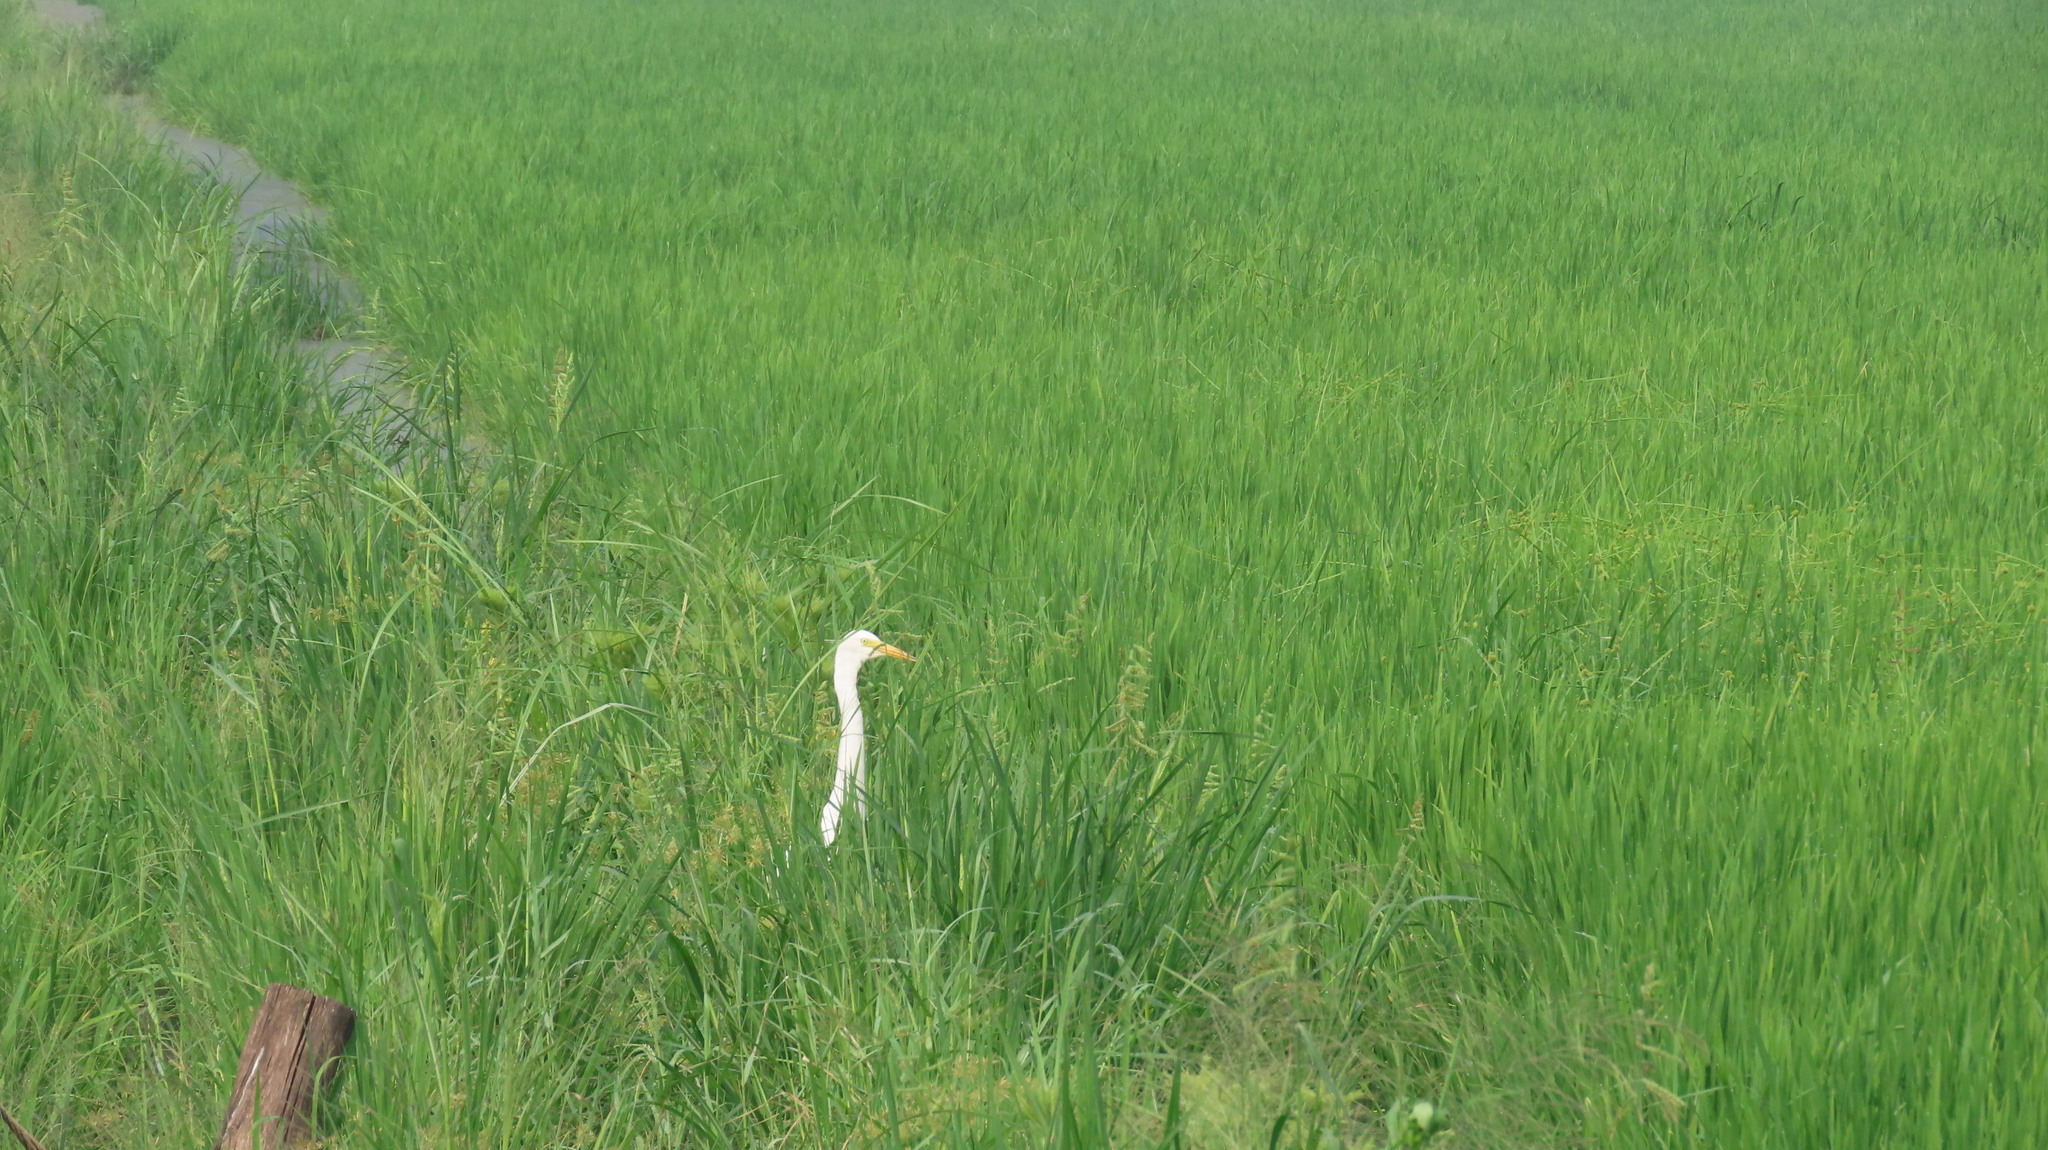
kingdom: Animalia
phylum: Chordata
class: Aves
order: Pelecaniformes
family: Ardeidae
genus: Egretta
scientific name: Egretta intermedia
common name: Intermediate egret
